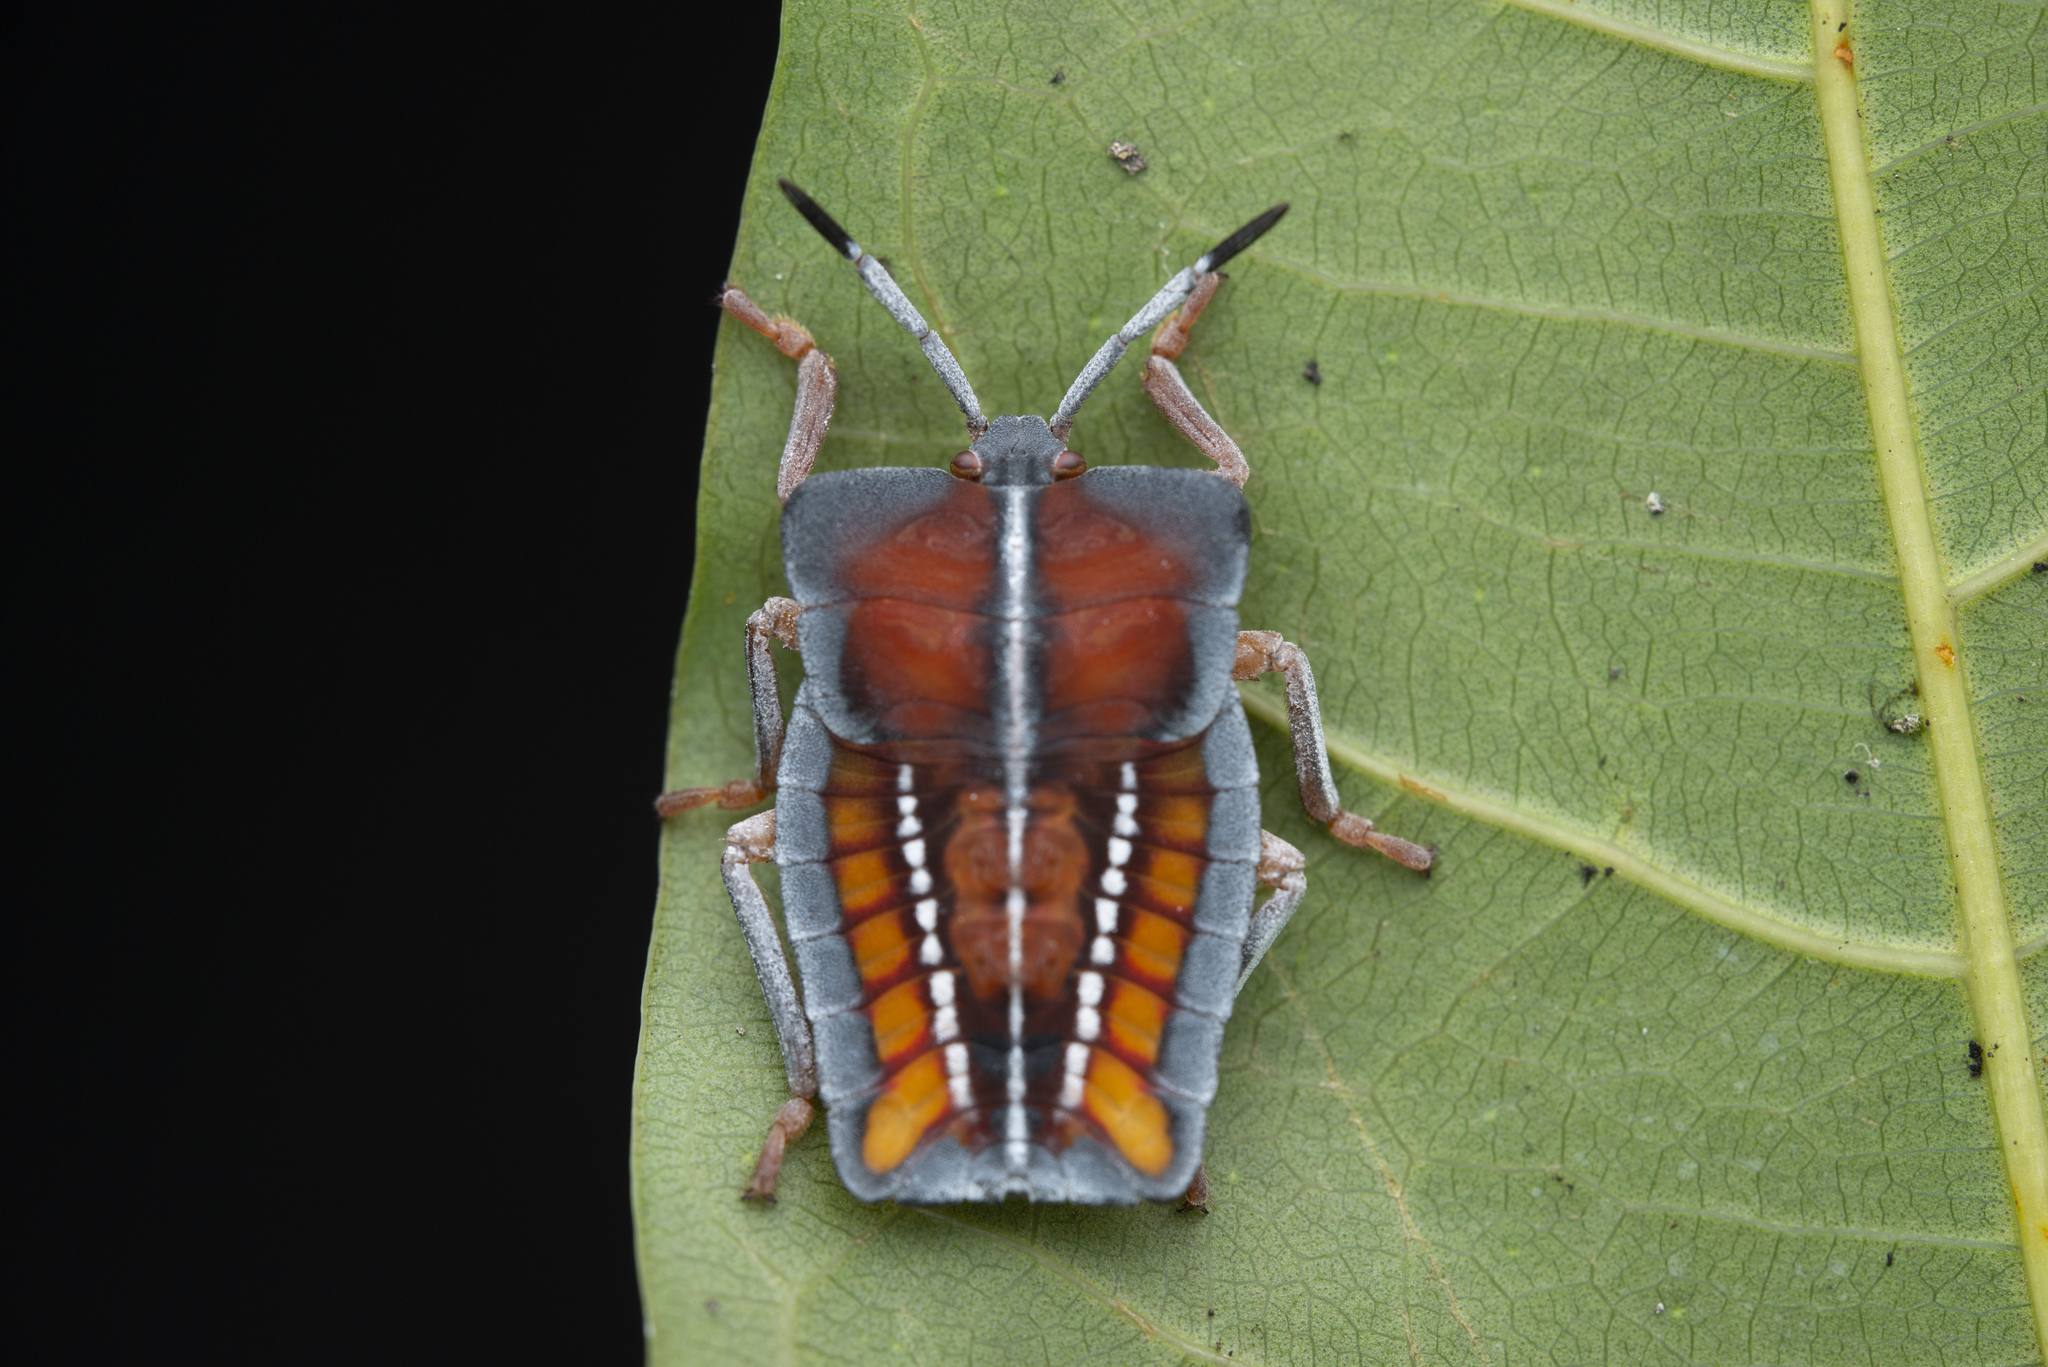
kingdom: Animalia
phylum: Arthropoda
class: Insecta
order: Hemiptera
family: Tessaratomidae
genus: Tessaratoma
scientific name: Tessaratoma papillosa
